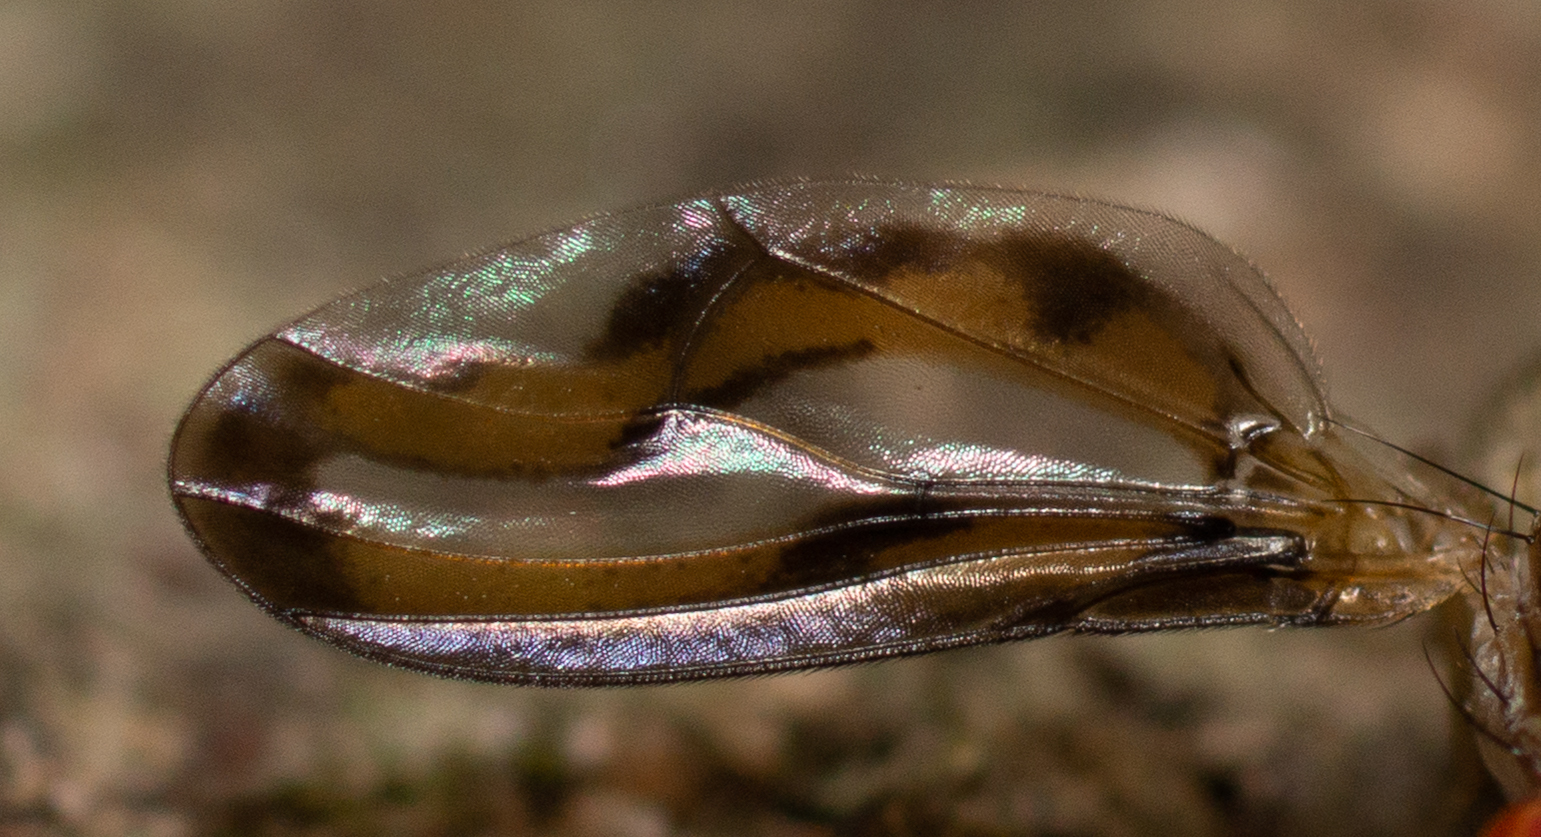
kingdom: Animalia
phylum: Arthropoda
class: Insecta
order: Diptera
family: Pallopteridae
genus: Toxonevra
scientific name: Toxonevra muliebris
